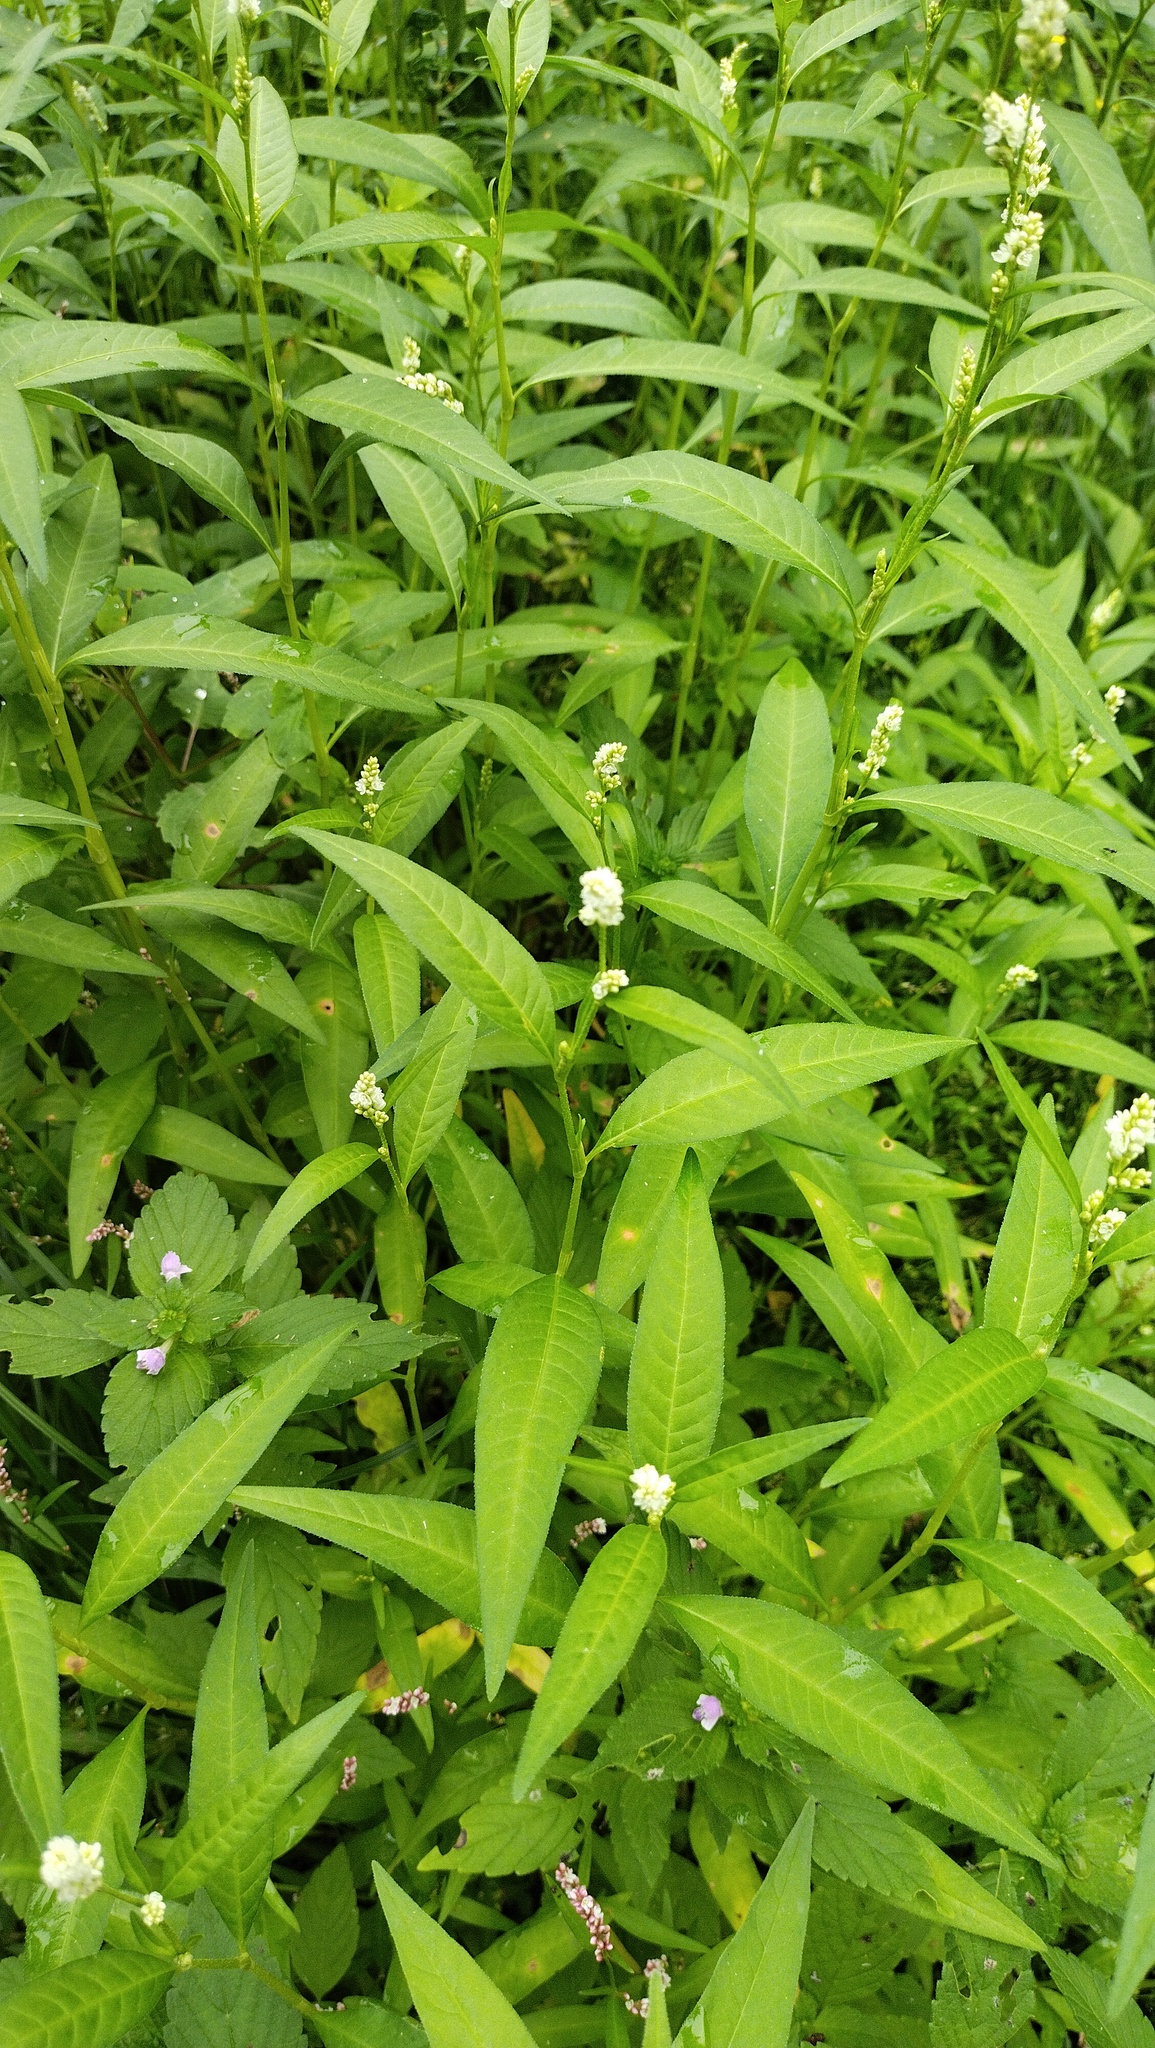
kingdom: Plantae
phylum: Tracheophyta
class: Magnoliopsida
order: Caryophyllales
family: Polygonaceae
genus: Persicaria
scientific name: Persicaria lapathifolia
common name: Curlytop knotweed
